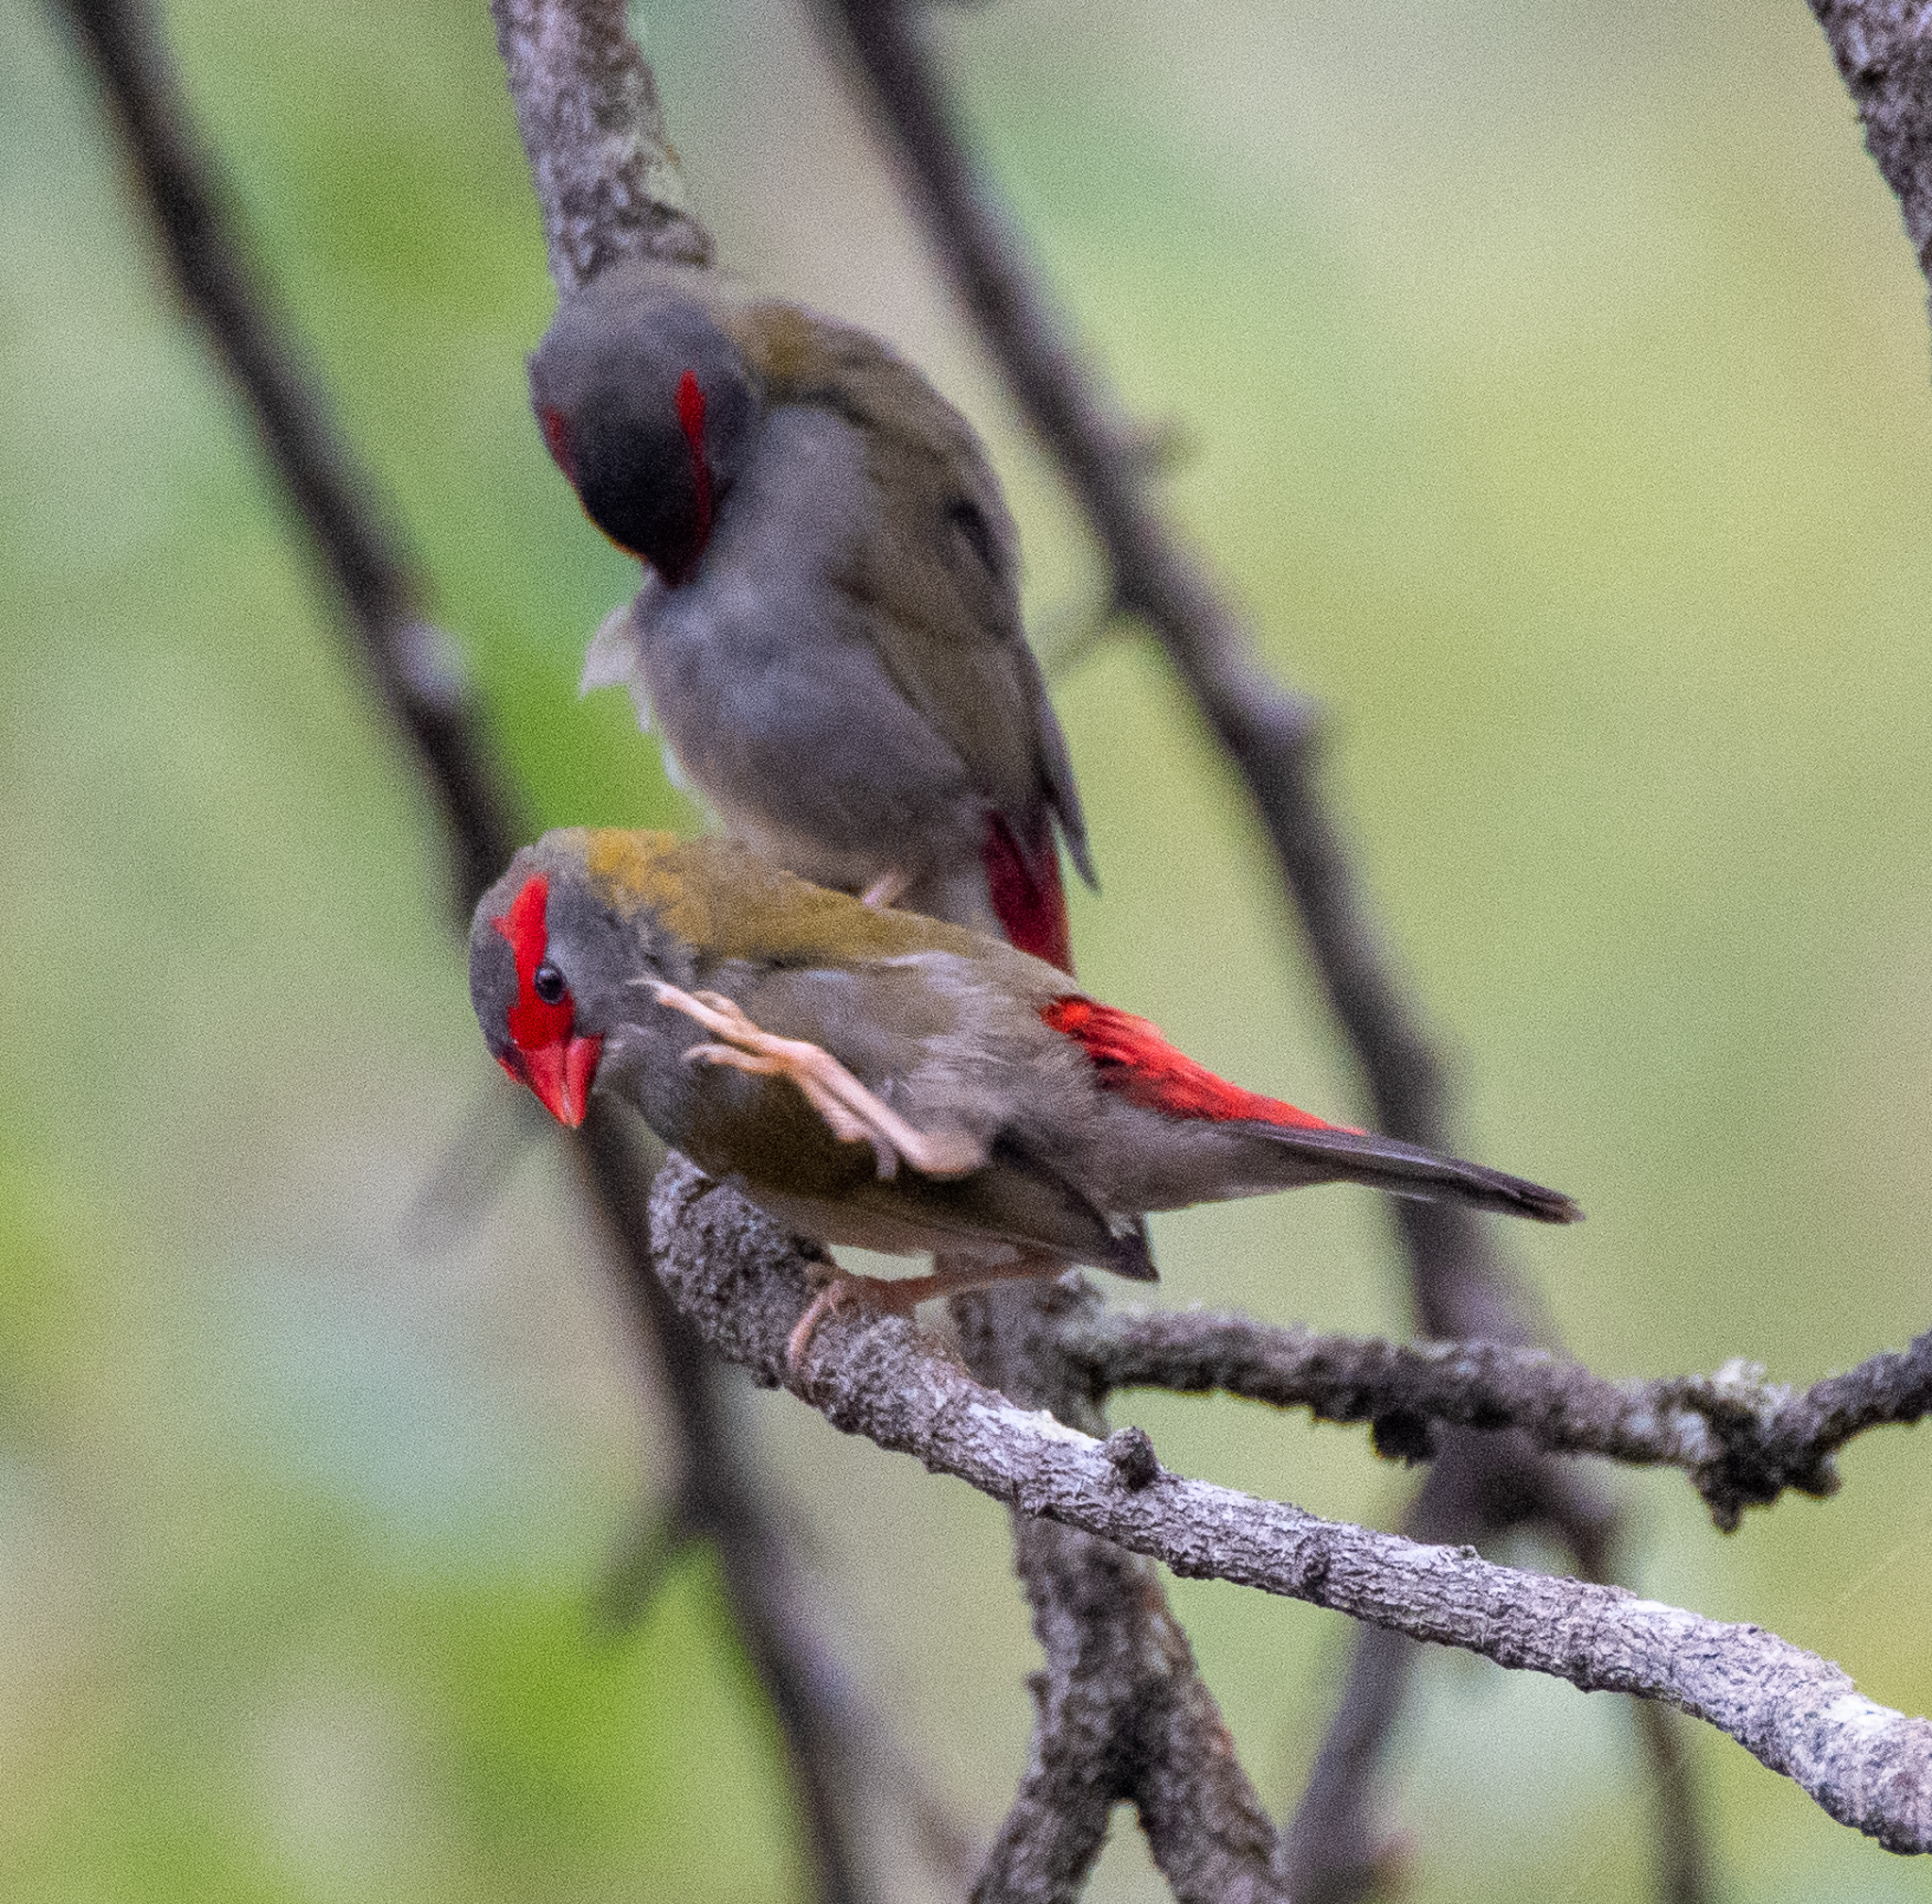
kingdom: Animalia
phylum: Chordata
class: Aves
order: Passeriformes
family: Estrildidae
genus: Neochmia
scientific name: Neochmia temporalis
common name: Red-browed finch
